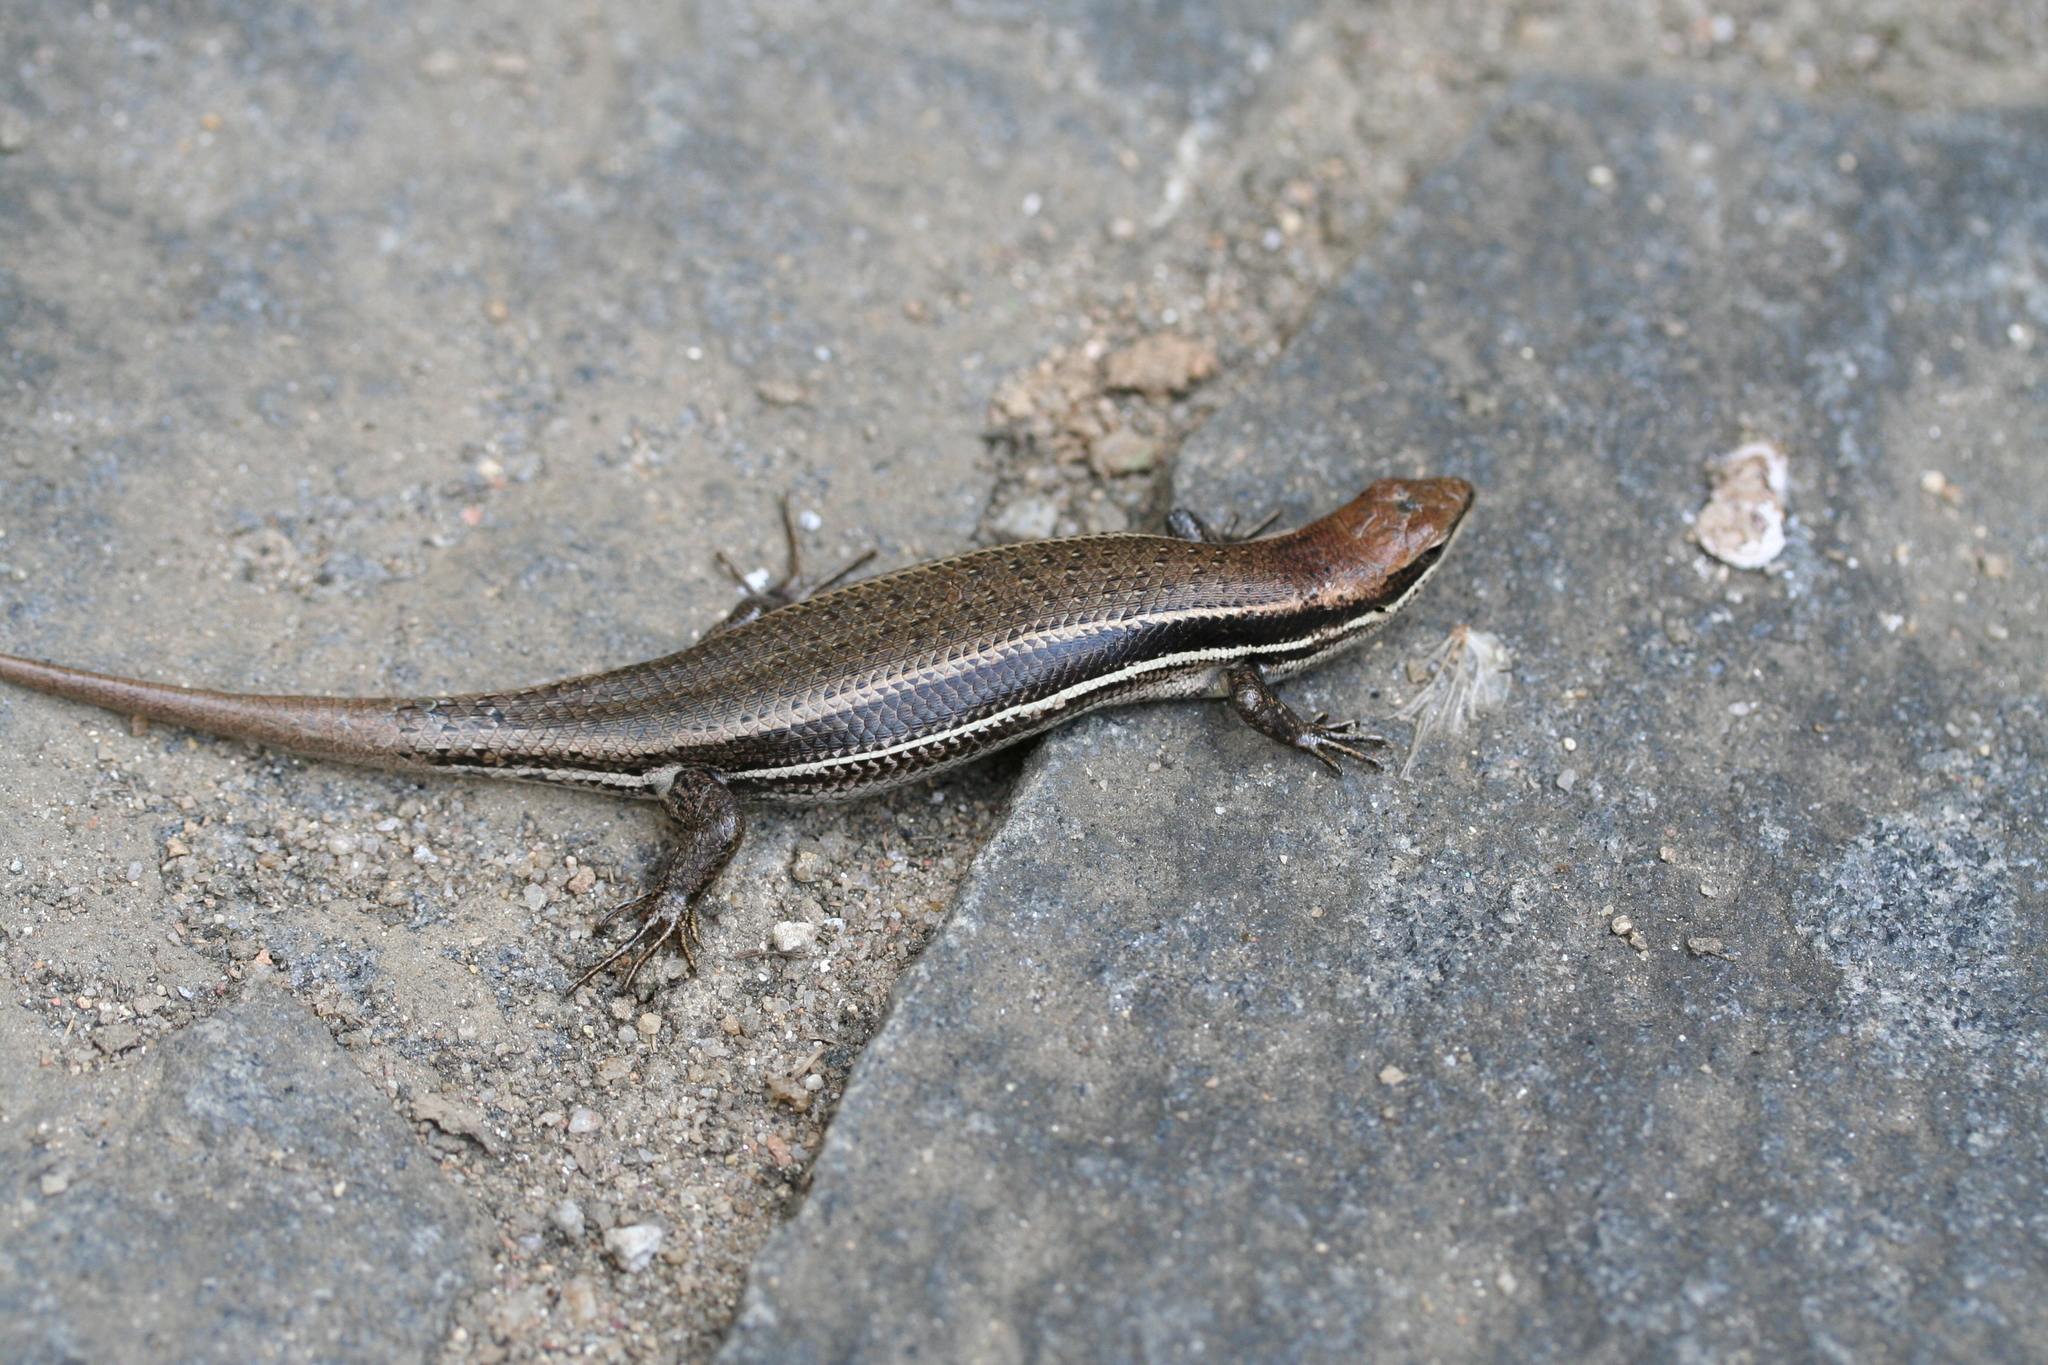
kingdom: Animalia
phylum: Chordata
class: Squamata
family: Scincidae
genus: Trachylepis
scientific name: Trachylepis gravenhorstii
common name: Gravenhorst's mabuya
